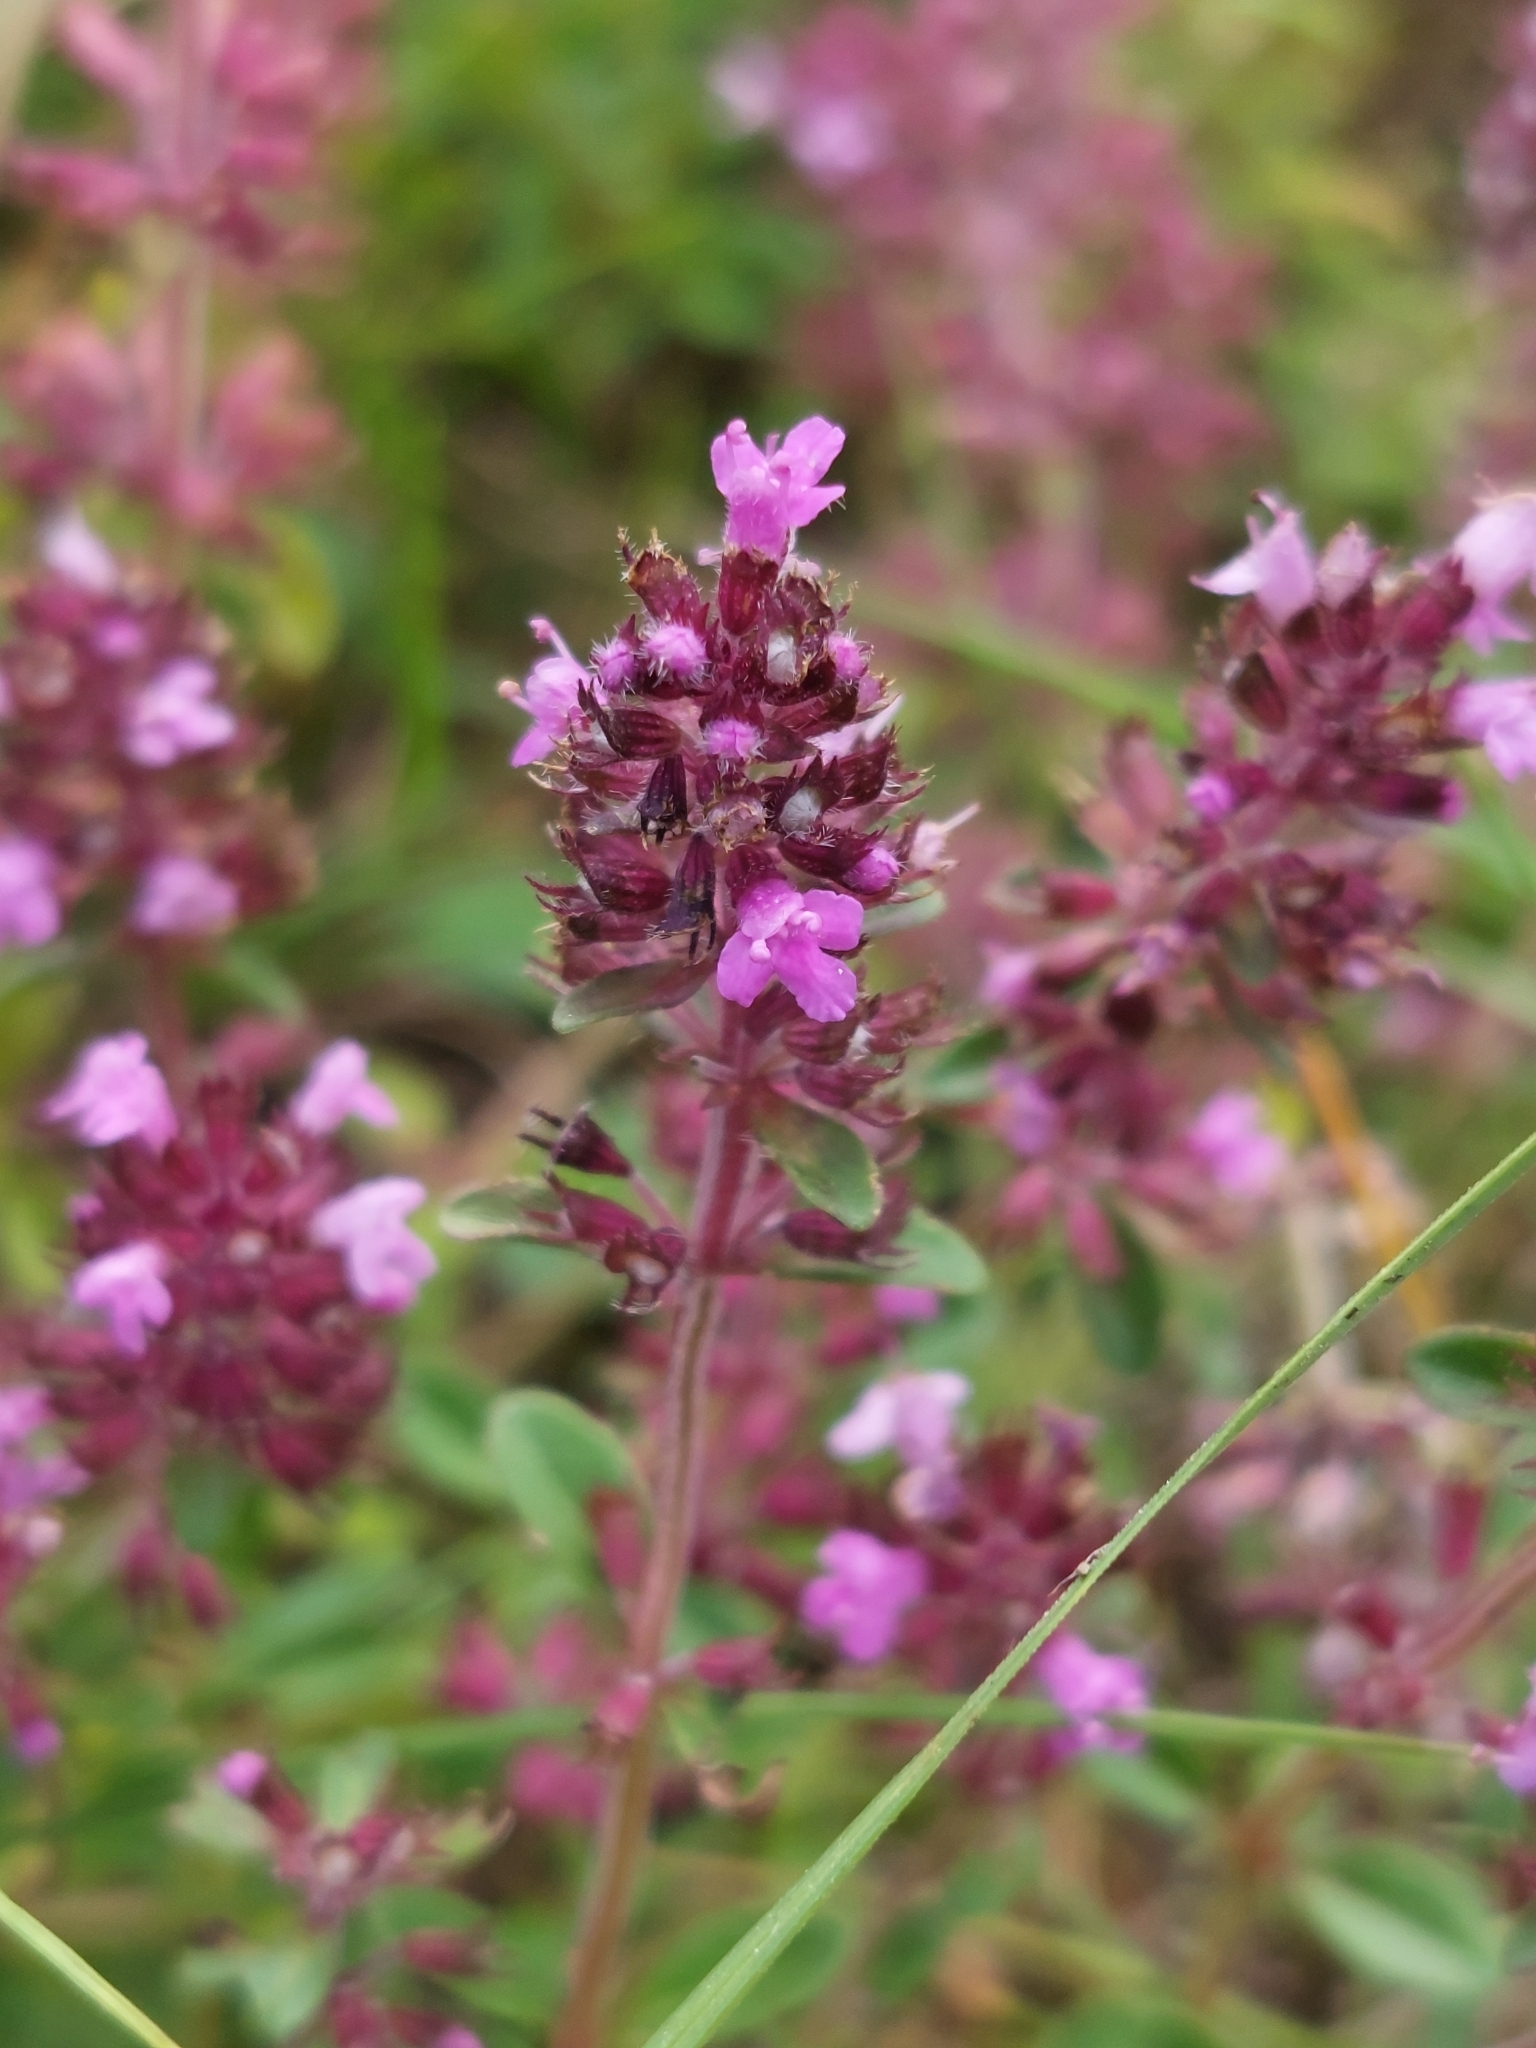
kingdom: Plantae
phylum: Tracheophyta
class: Magnoliopsida
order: Lamiales
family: Lamiaceae
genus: Thymus
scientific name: Thymus pulegioides
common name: Large thyme
